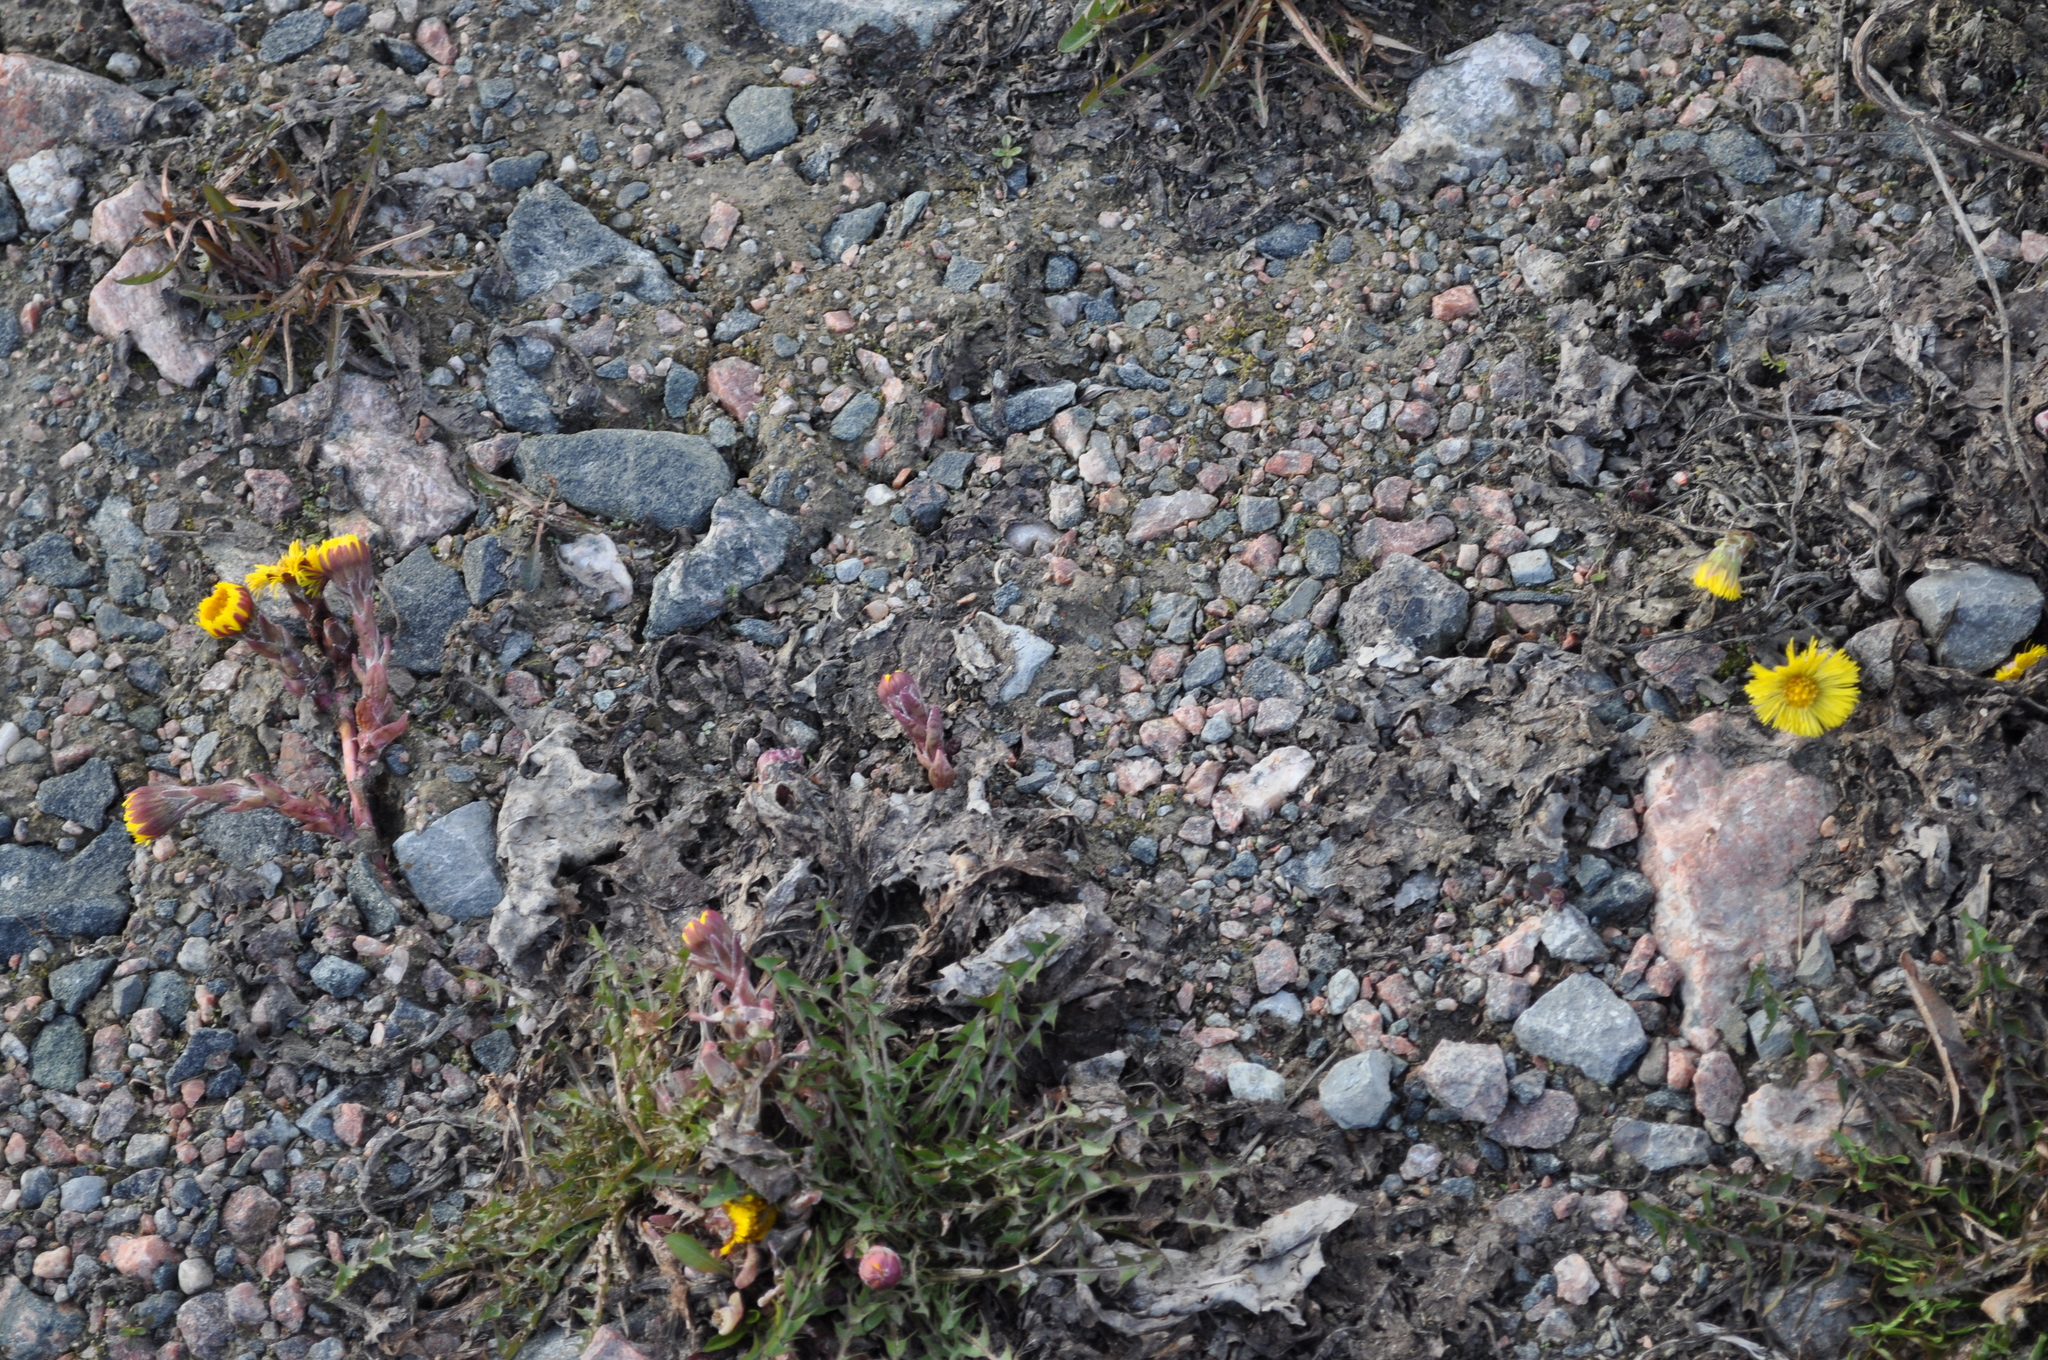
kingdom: Plantae
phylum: Tracheophyta
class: Magnoliopsida
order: Asterales
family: Asteraceae
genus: Tussilago
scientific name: Tussilago farfara
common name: Coltsfoot
